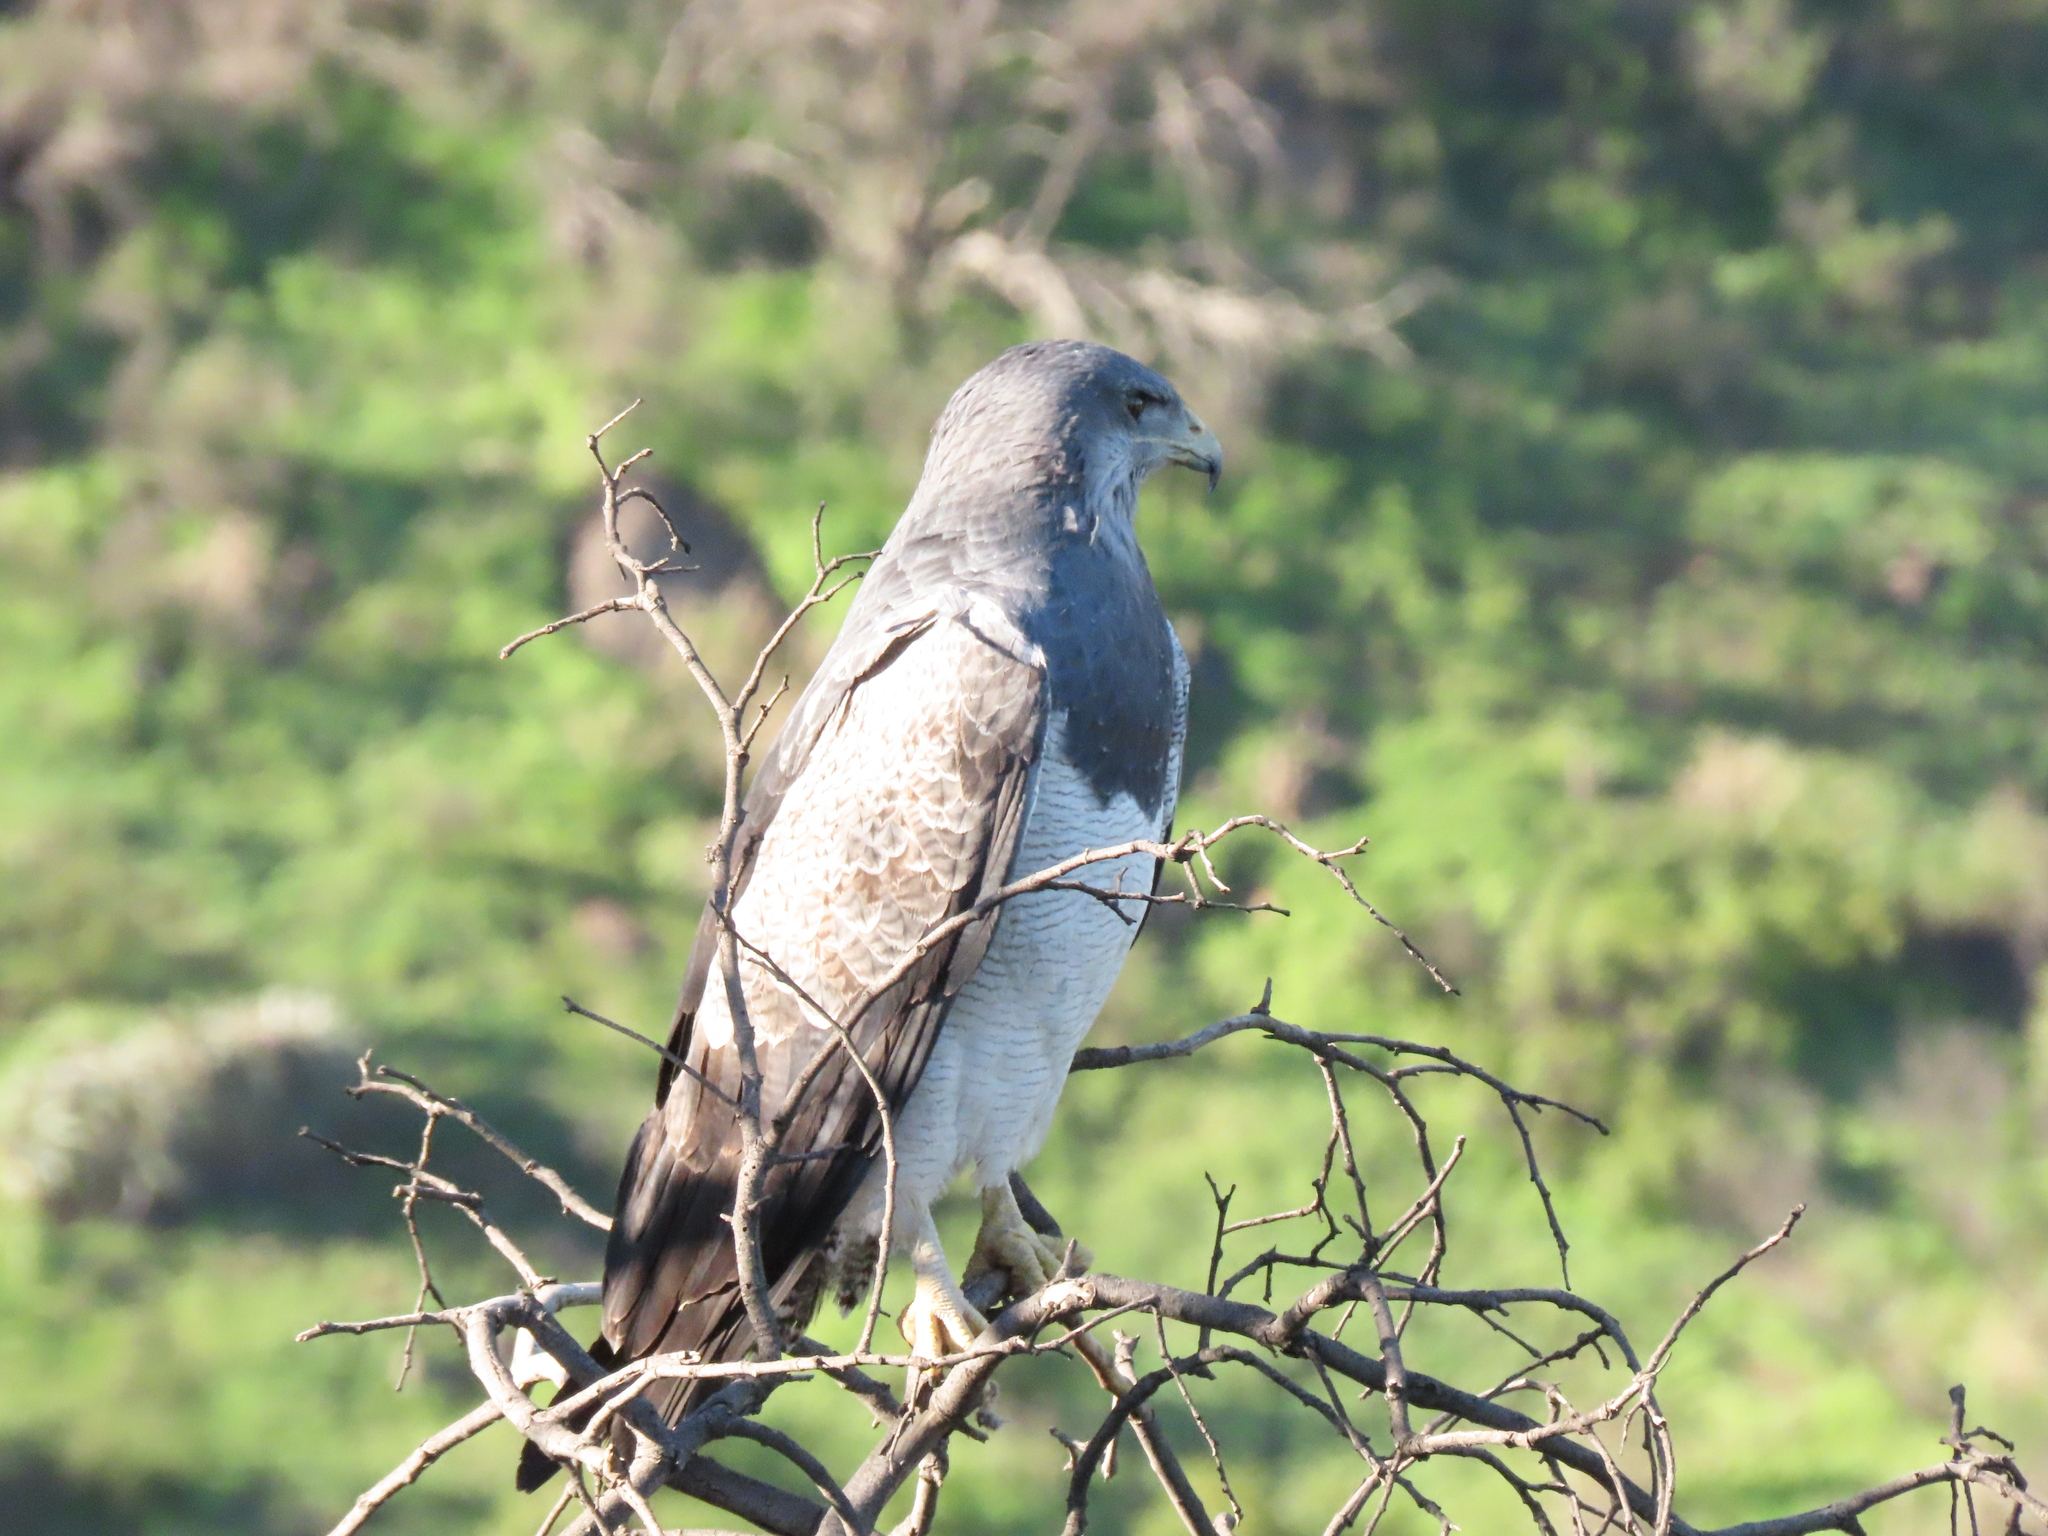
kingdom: Animalia
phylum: Chordata
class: Aves
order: Accipitriformes
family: Accipitridae
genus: Geranoaetus
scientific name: Geranoaetus melanoleucus
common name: Black-chested buzzard-eagle
